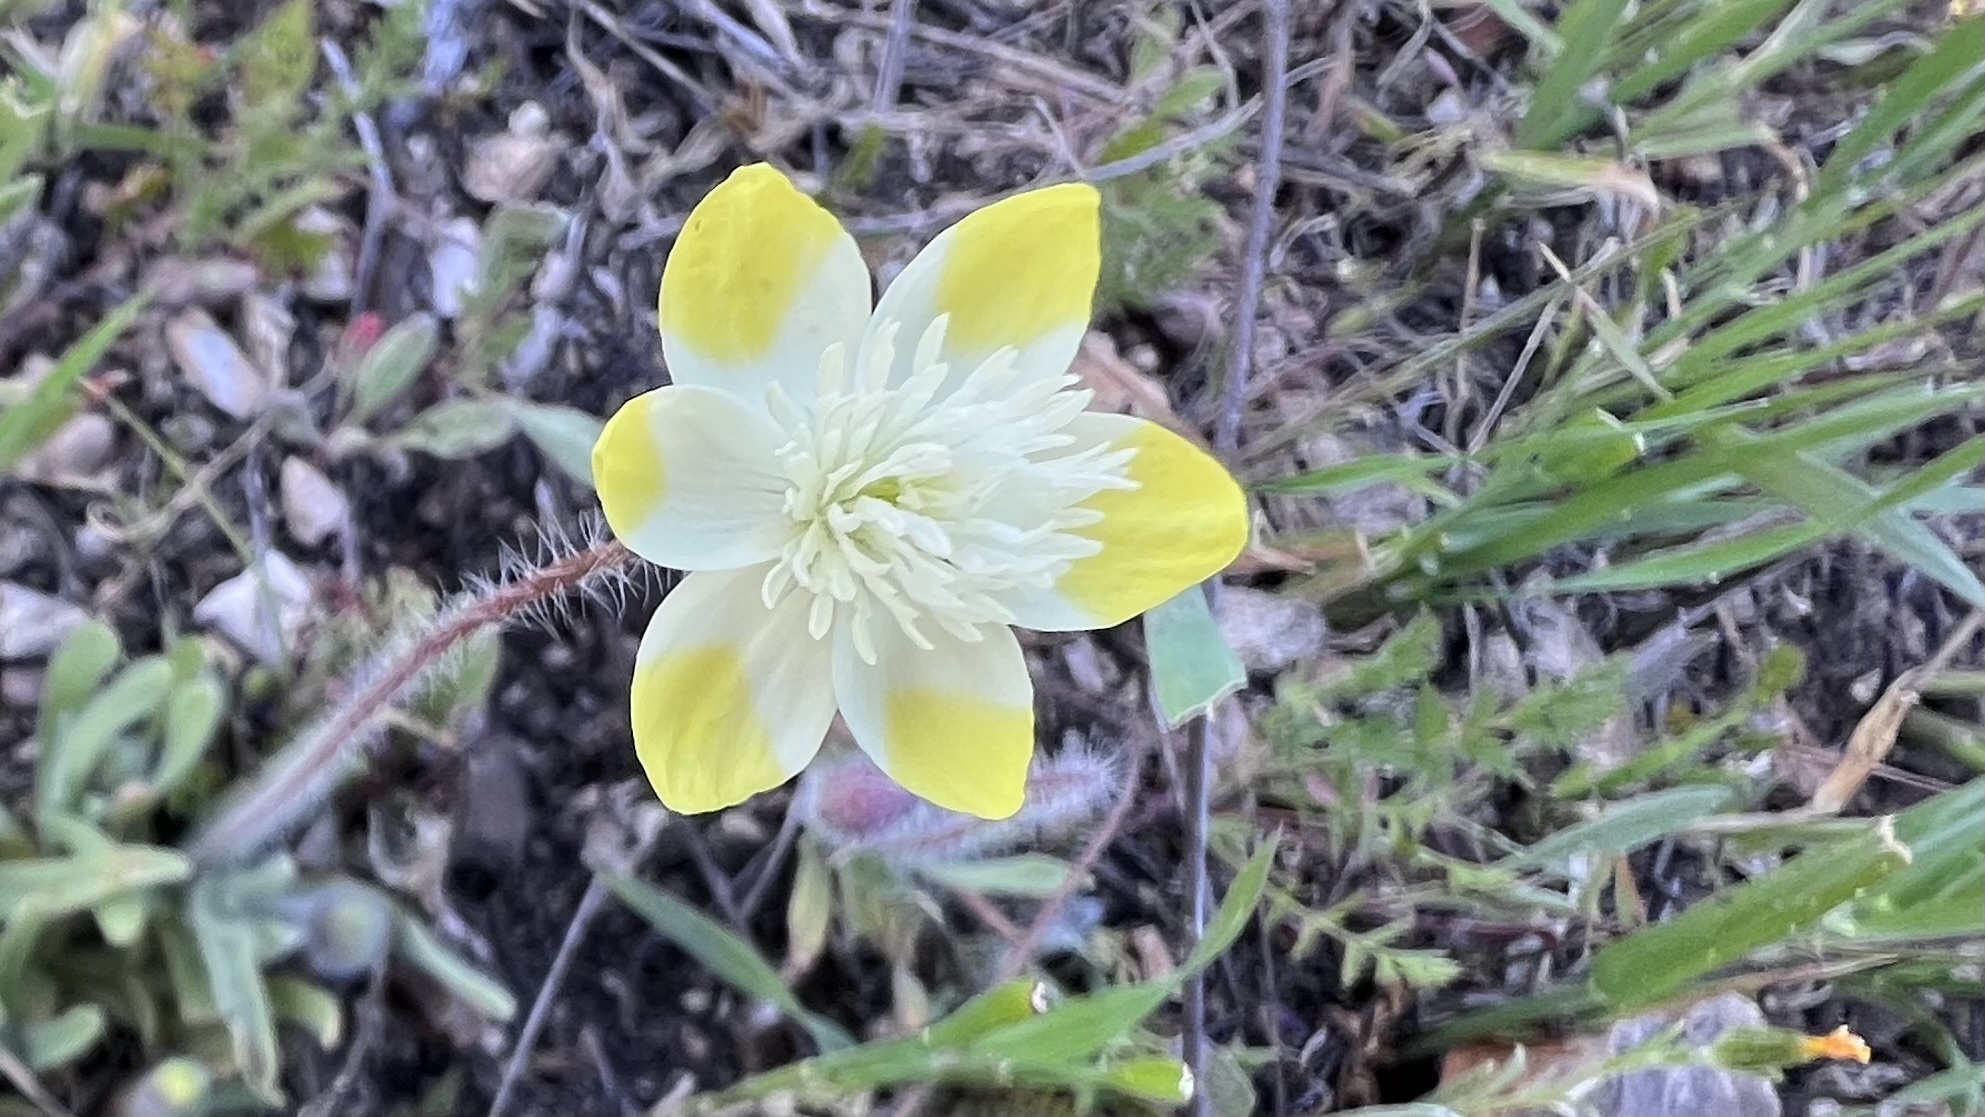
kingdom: Plantae
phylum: Tracheophyta
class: Magnoliopsida
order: Ranunculales
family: Papaveraceae
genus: Platystemon
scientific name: Platystemon californicus
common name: Cream-cups
